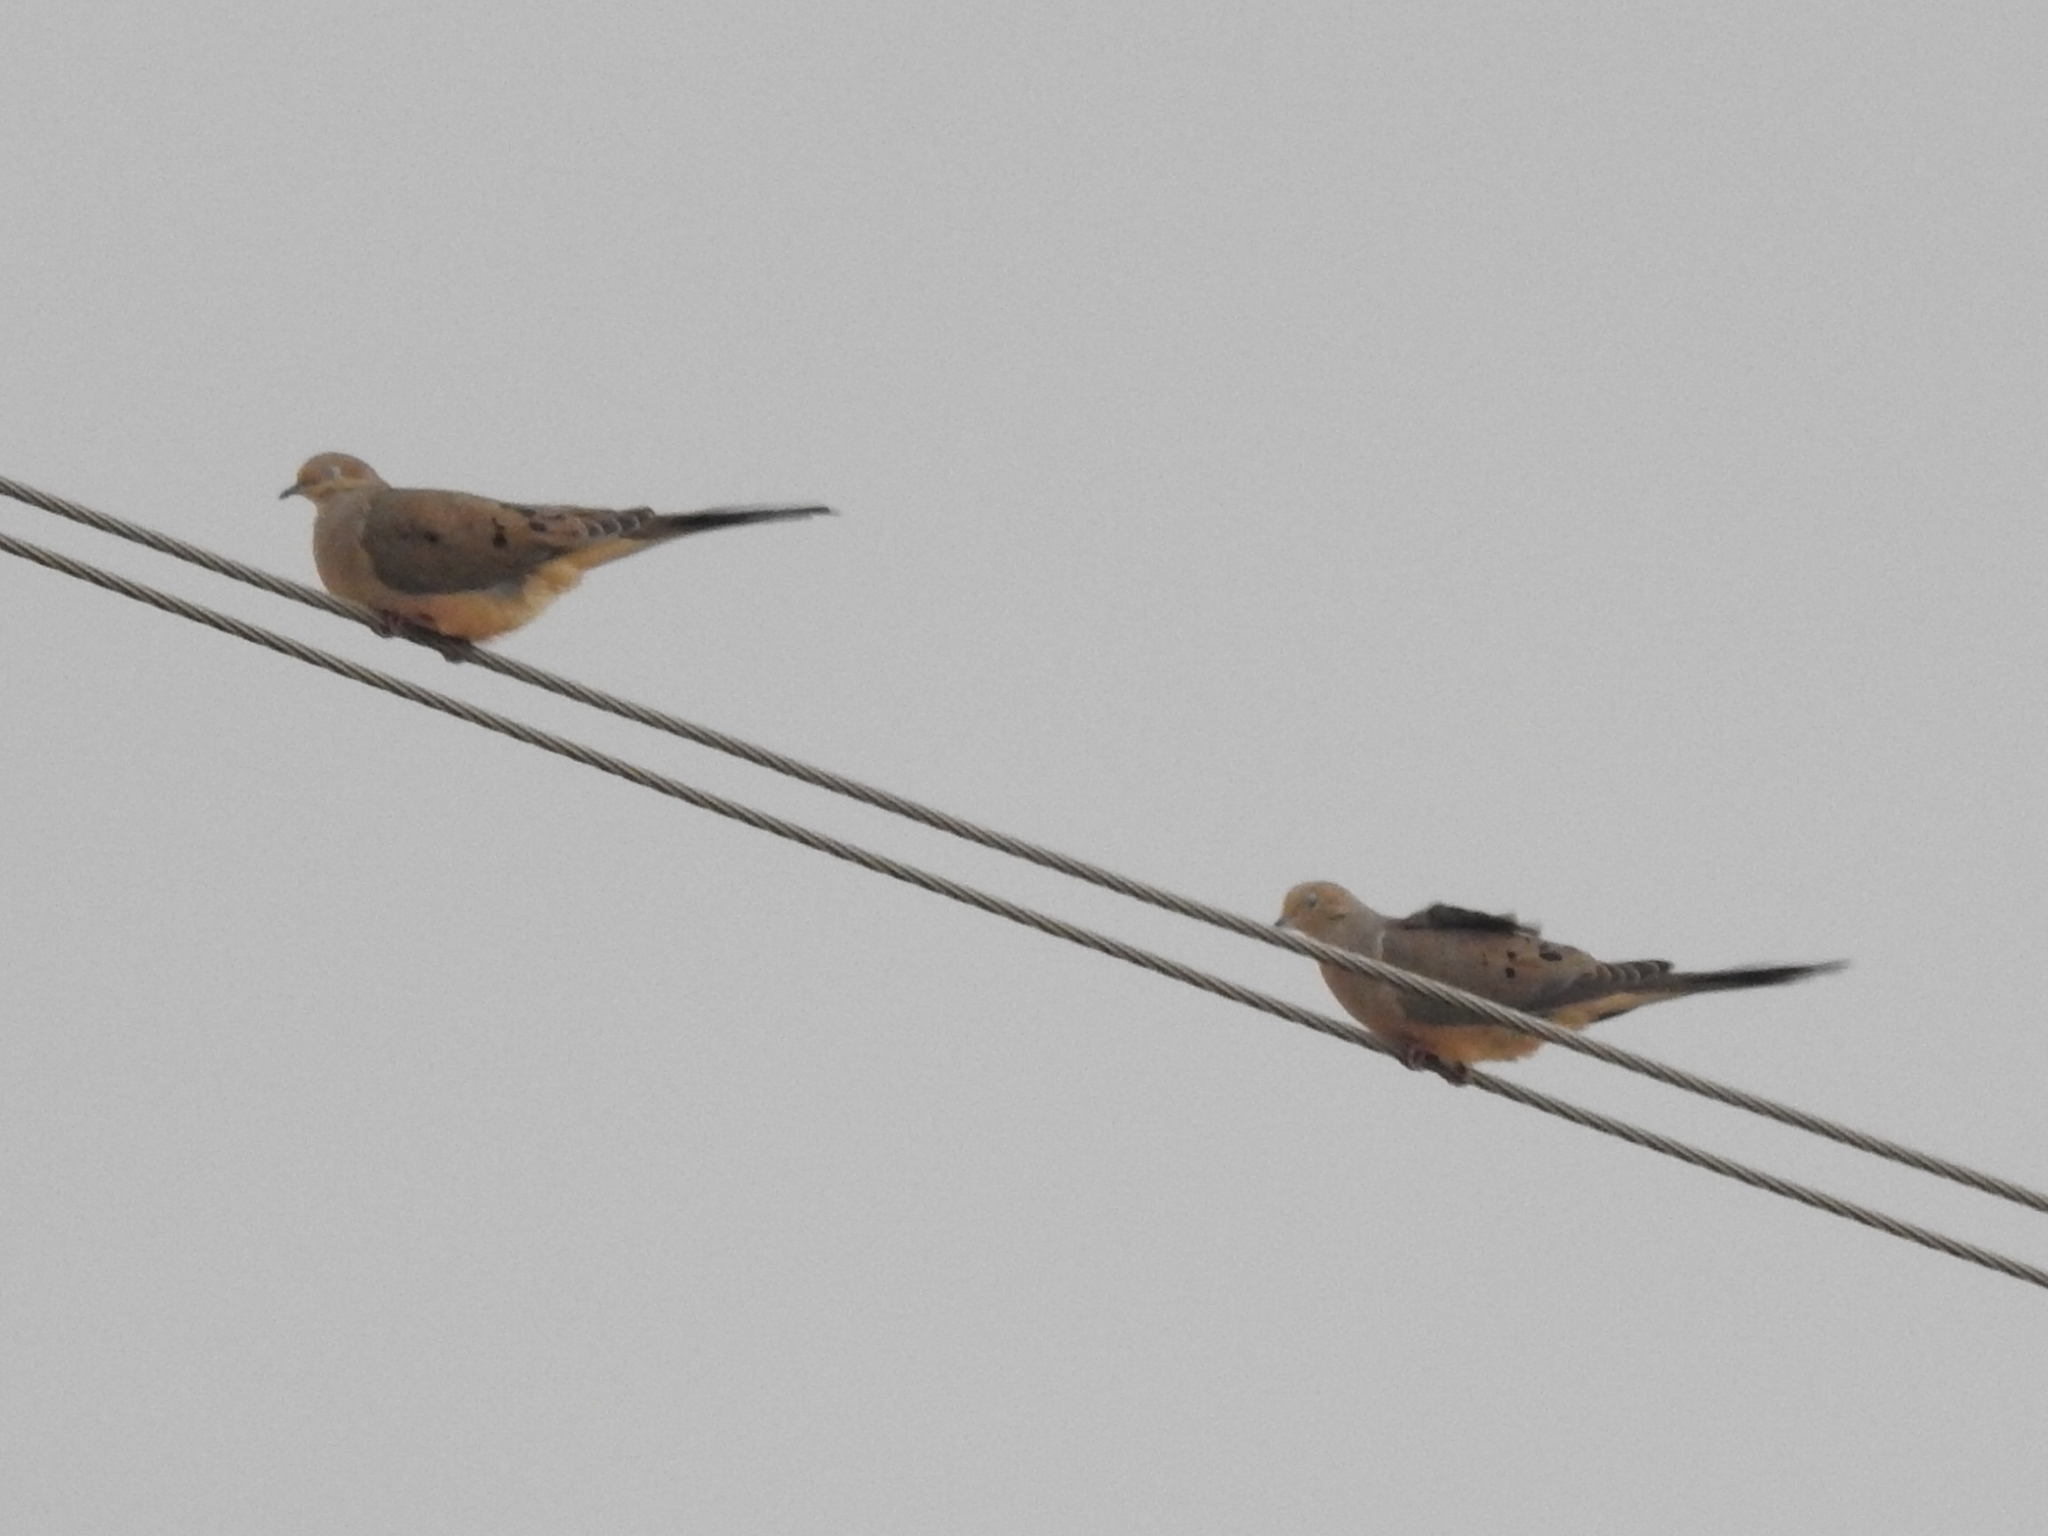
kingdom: Animalia
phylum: Chordata
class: Aves
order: Columbiformes
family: Columbidae
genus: Zenaida
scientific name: Zenaida macroura
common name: Mourning dove
